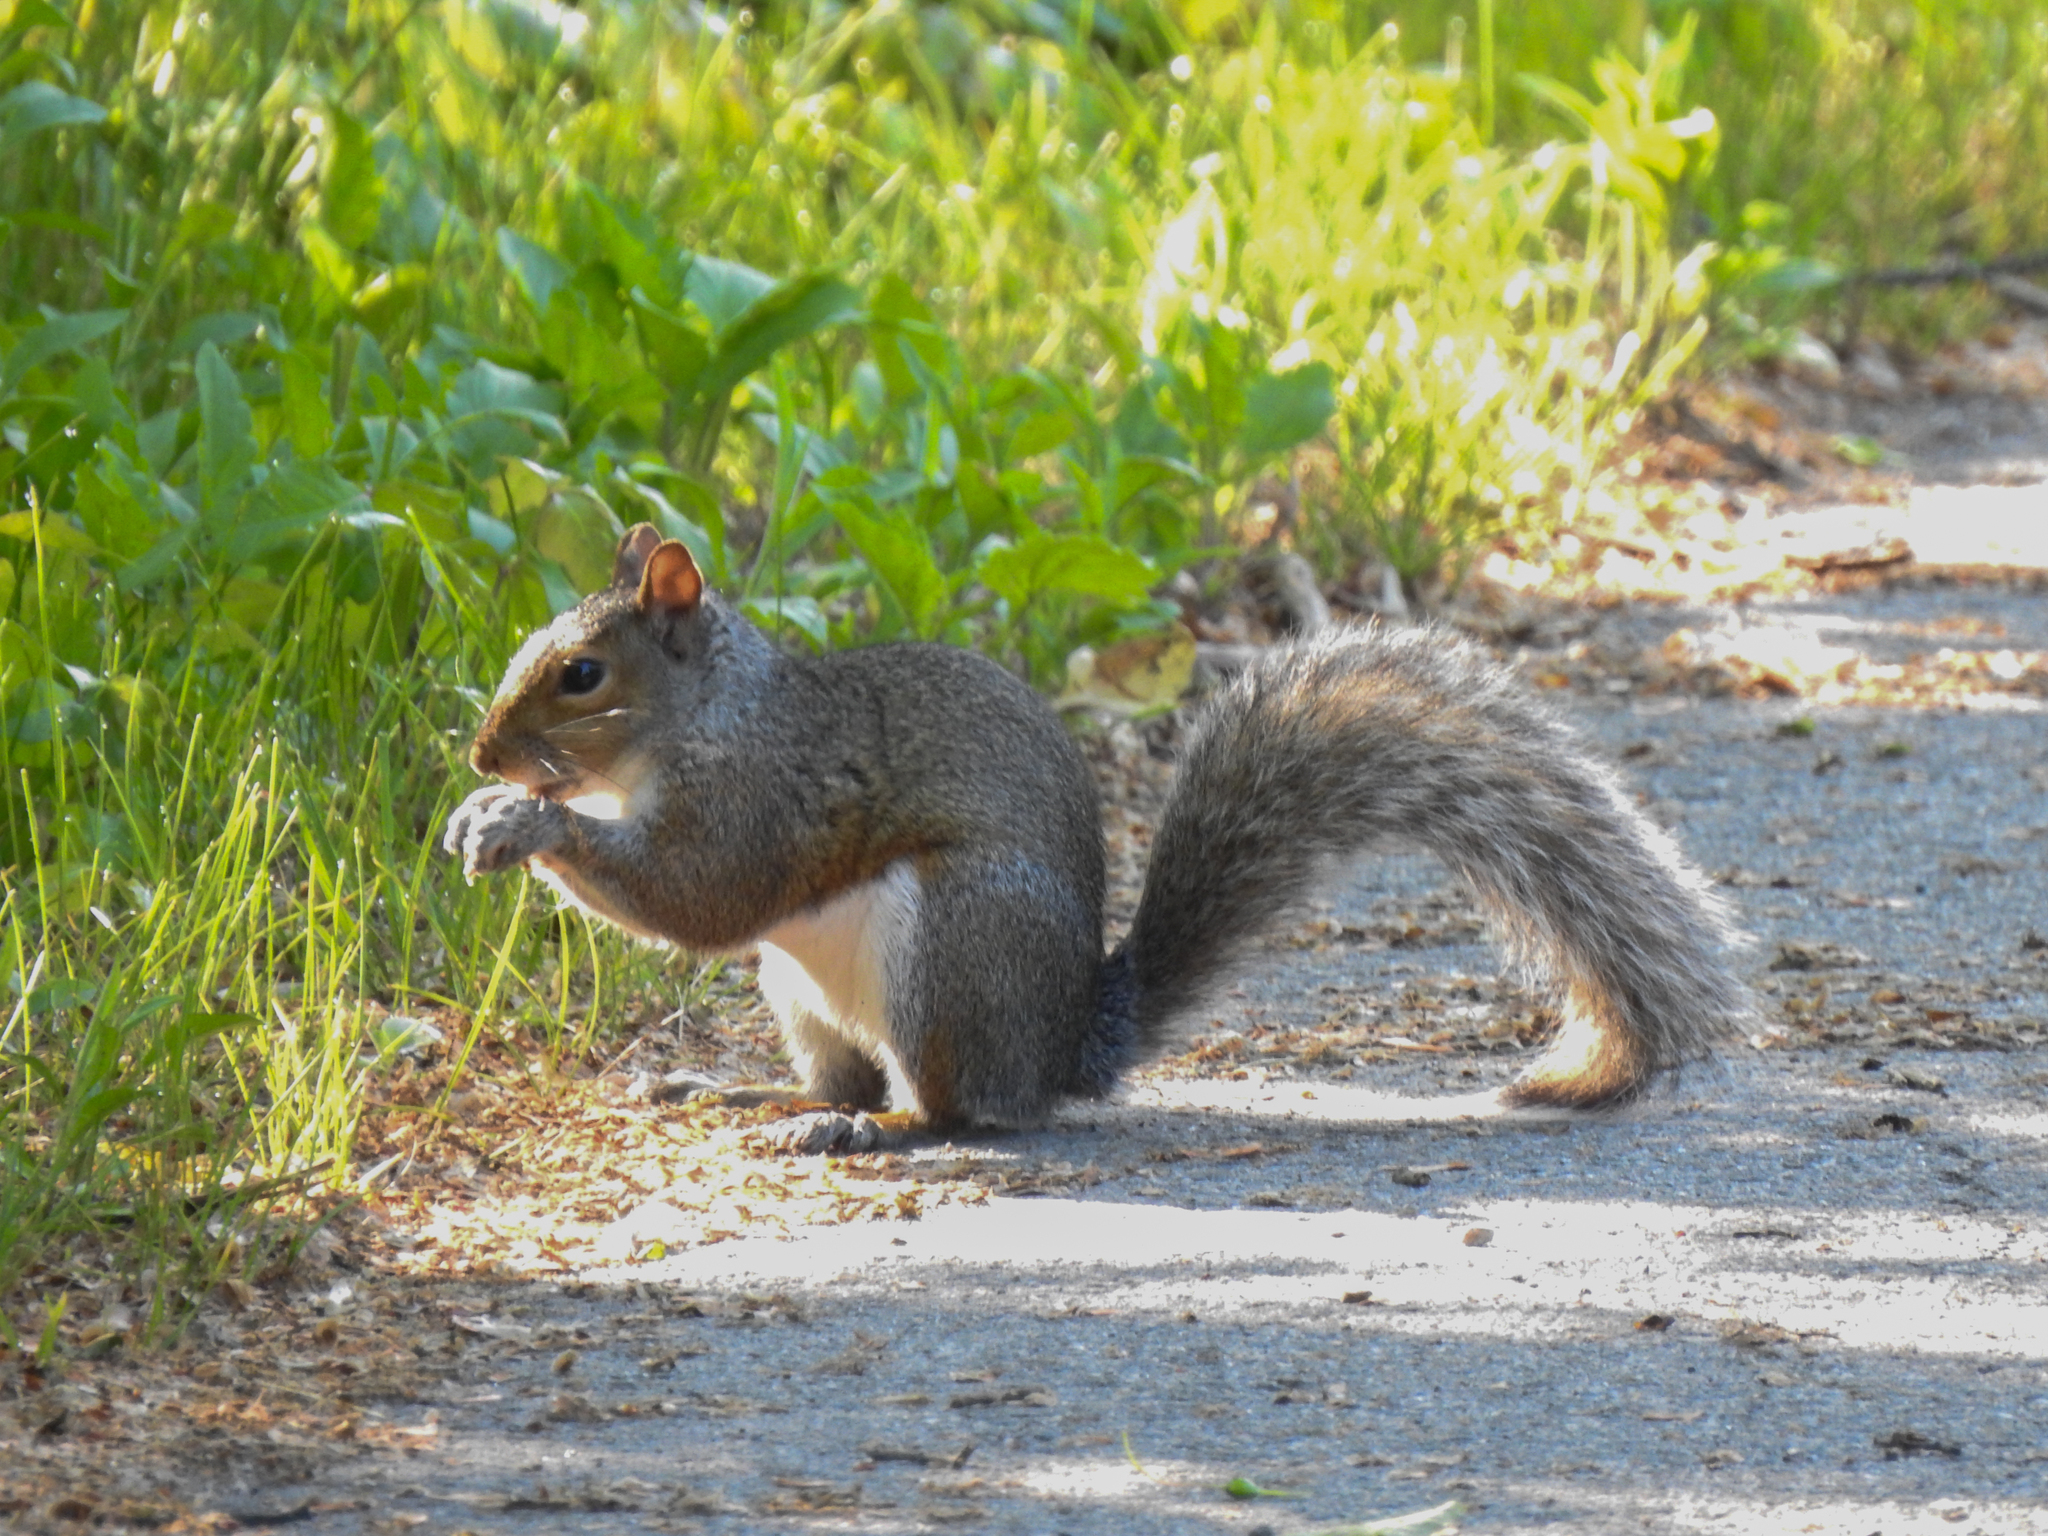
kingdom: Animalia
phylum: Chordata
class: Mammalia
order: Rodentia
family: Sciuridae
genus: Sciurus
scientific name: Sciurus carolinensis
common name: Eastern gray squirrel
